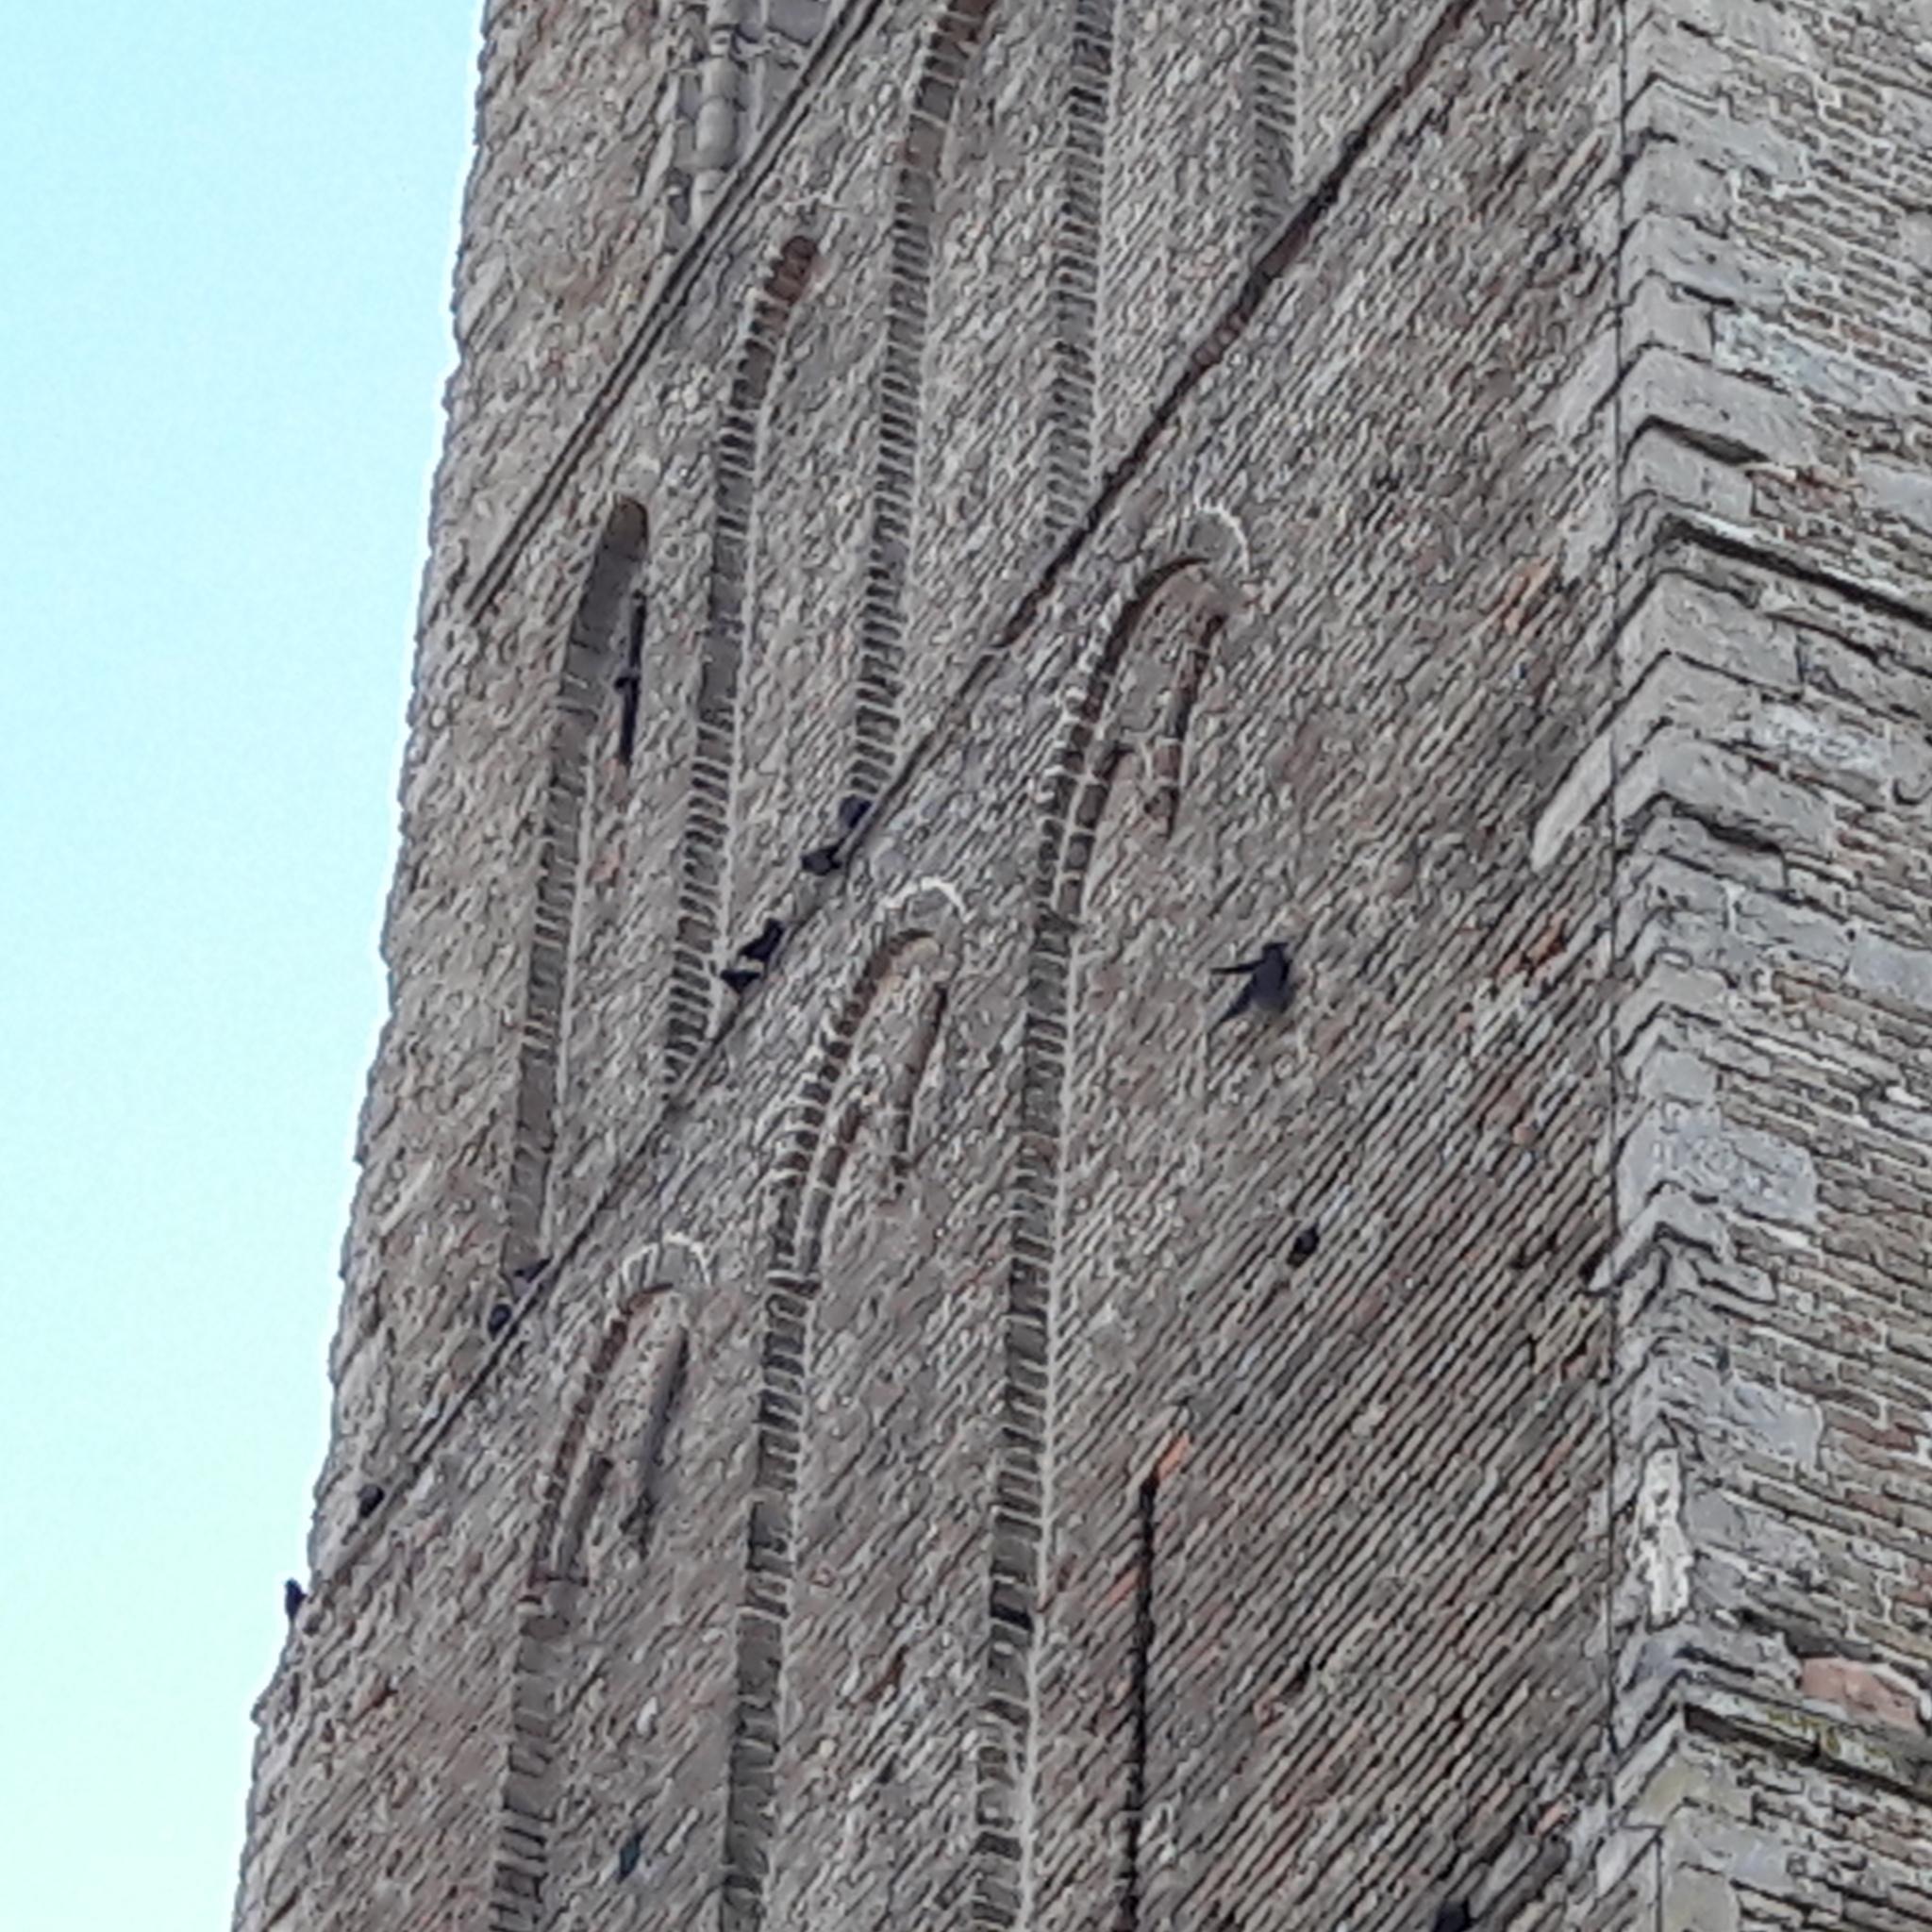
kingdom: Animalia
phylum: Chordata
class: Aves
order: Passeriformes
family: Corvidae
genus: Coloeus
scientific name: Coloeus monedula
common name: Western jackdaw
